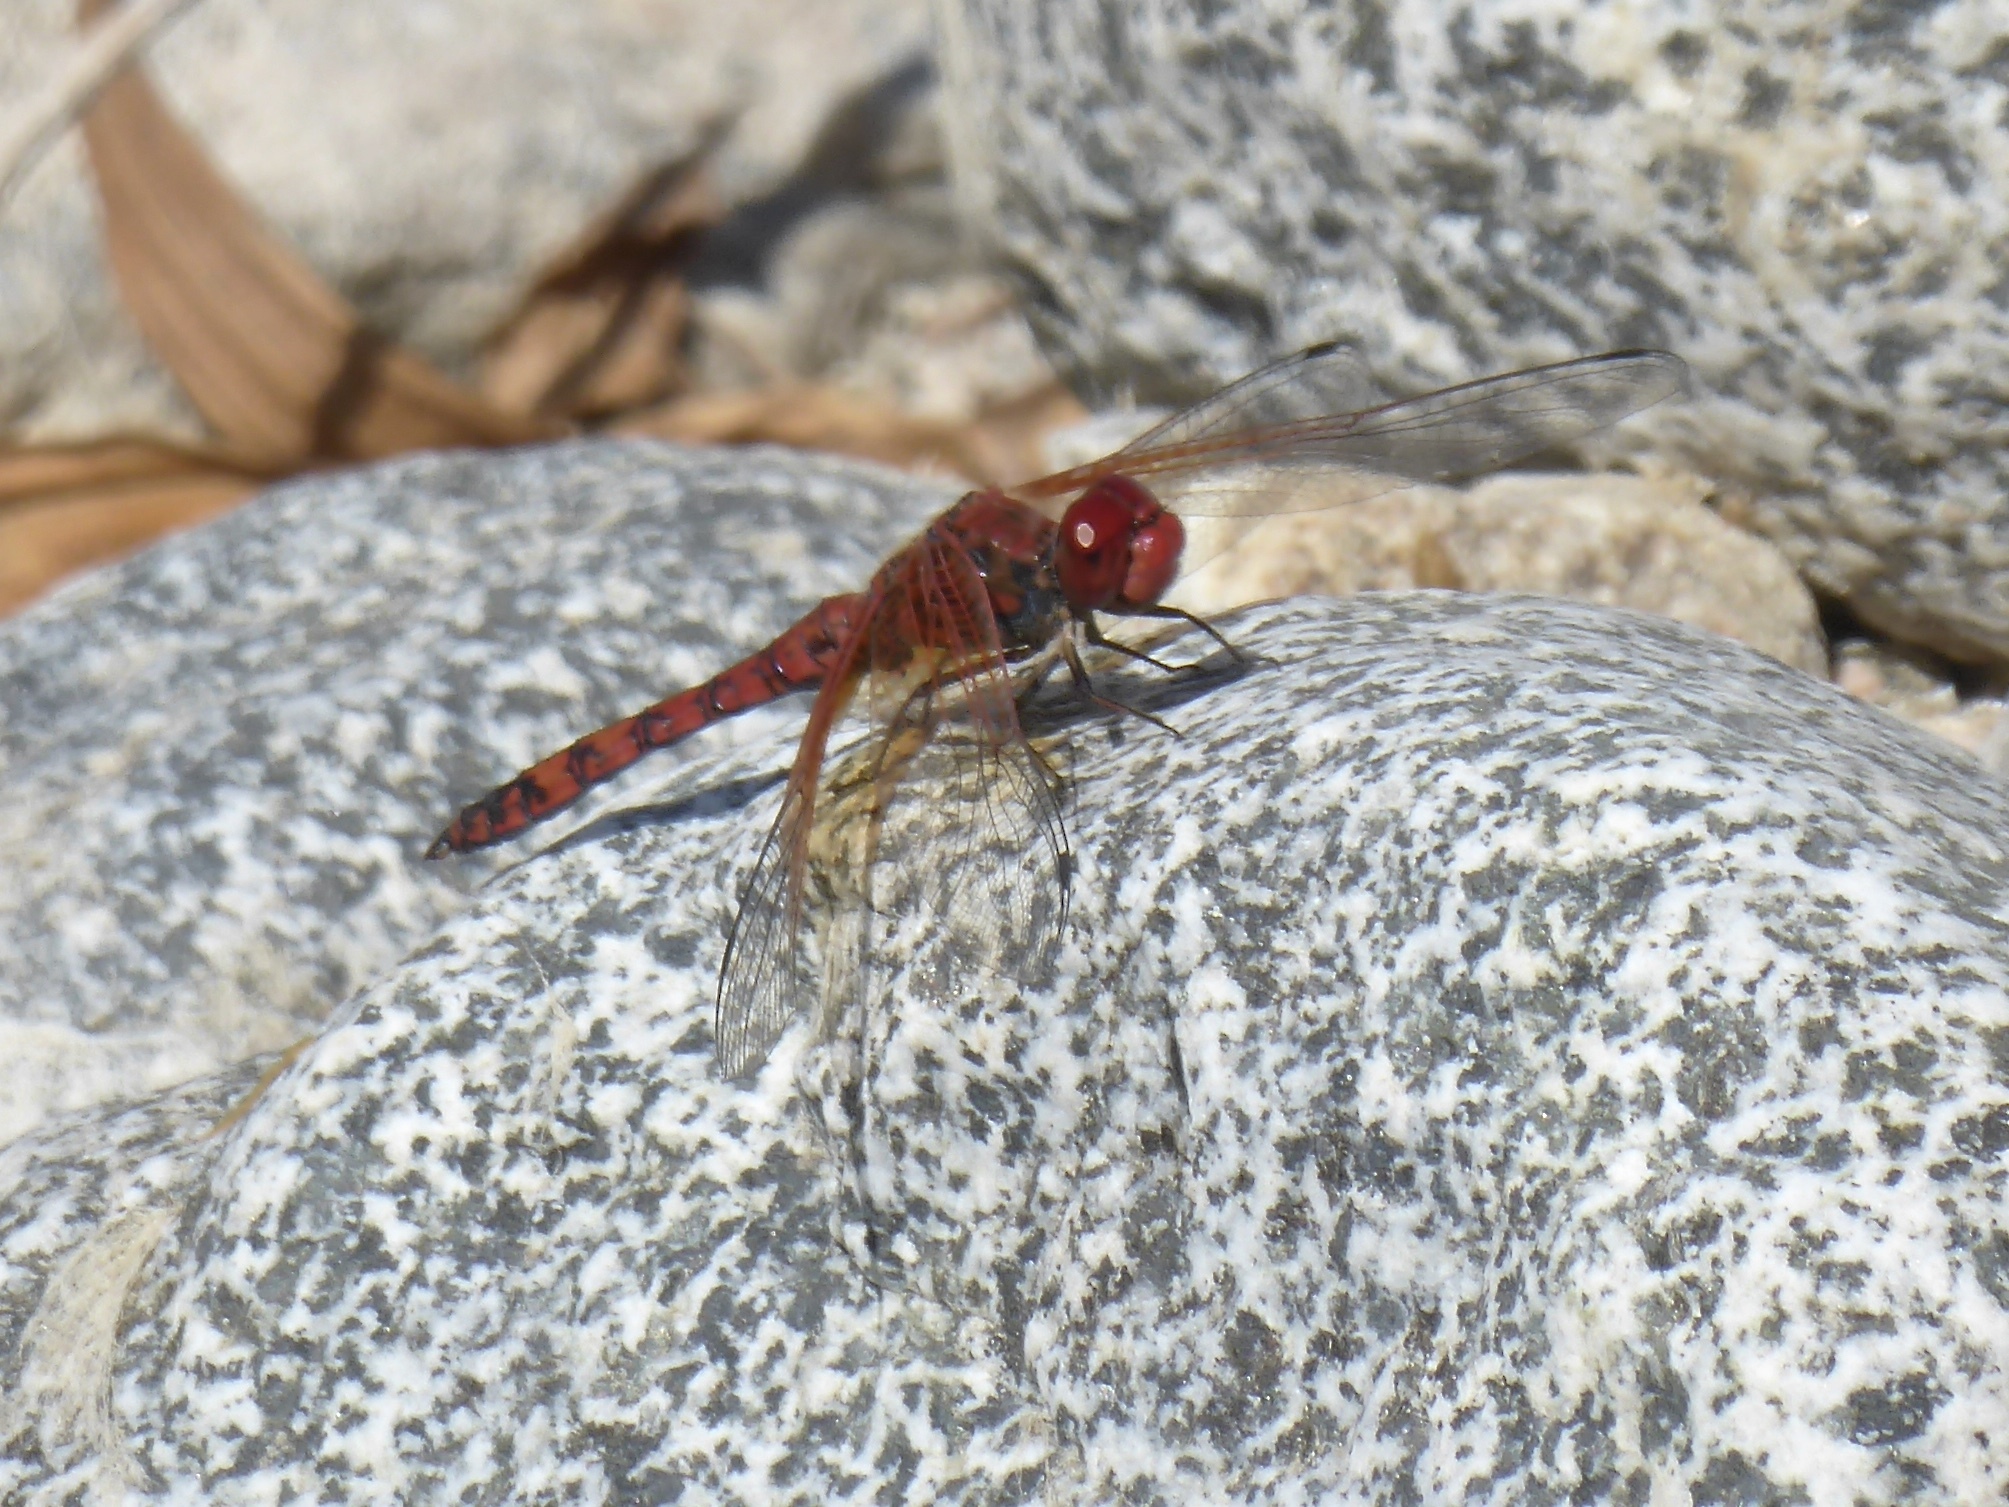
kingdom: Animalia
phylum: Arthropoda
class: Insecta
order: Odonata
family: Libellulidae
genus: Paltothemis
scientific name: Paltothemis lineatipes
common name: Red rock skimmer
